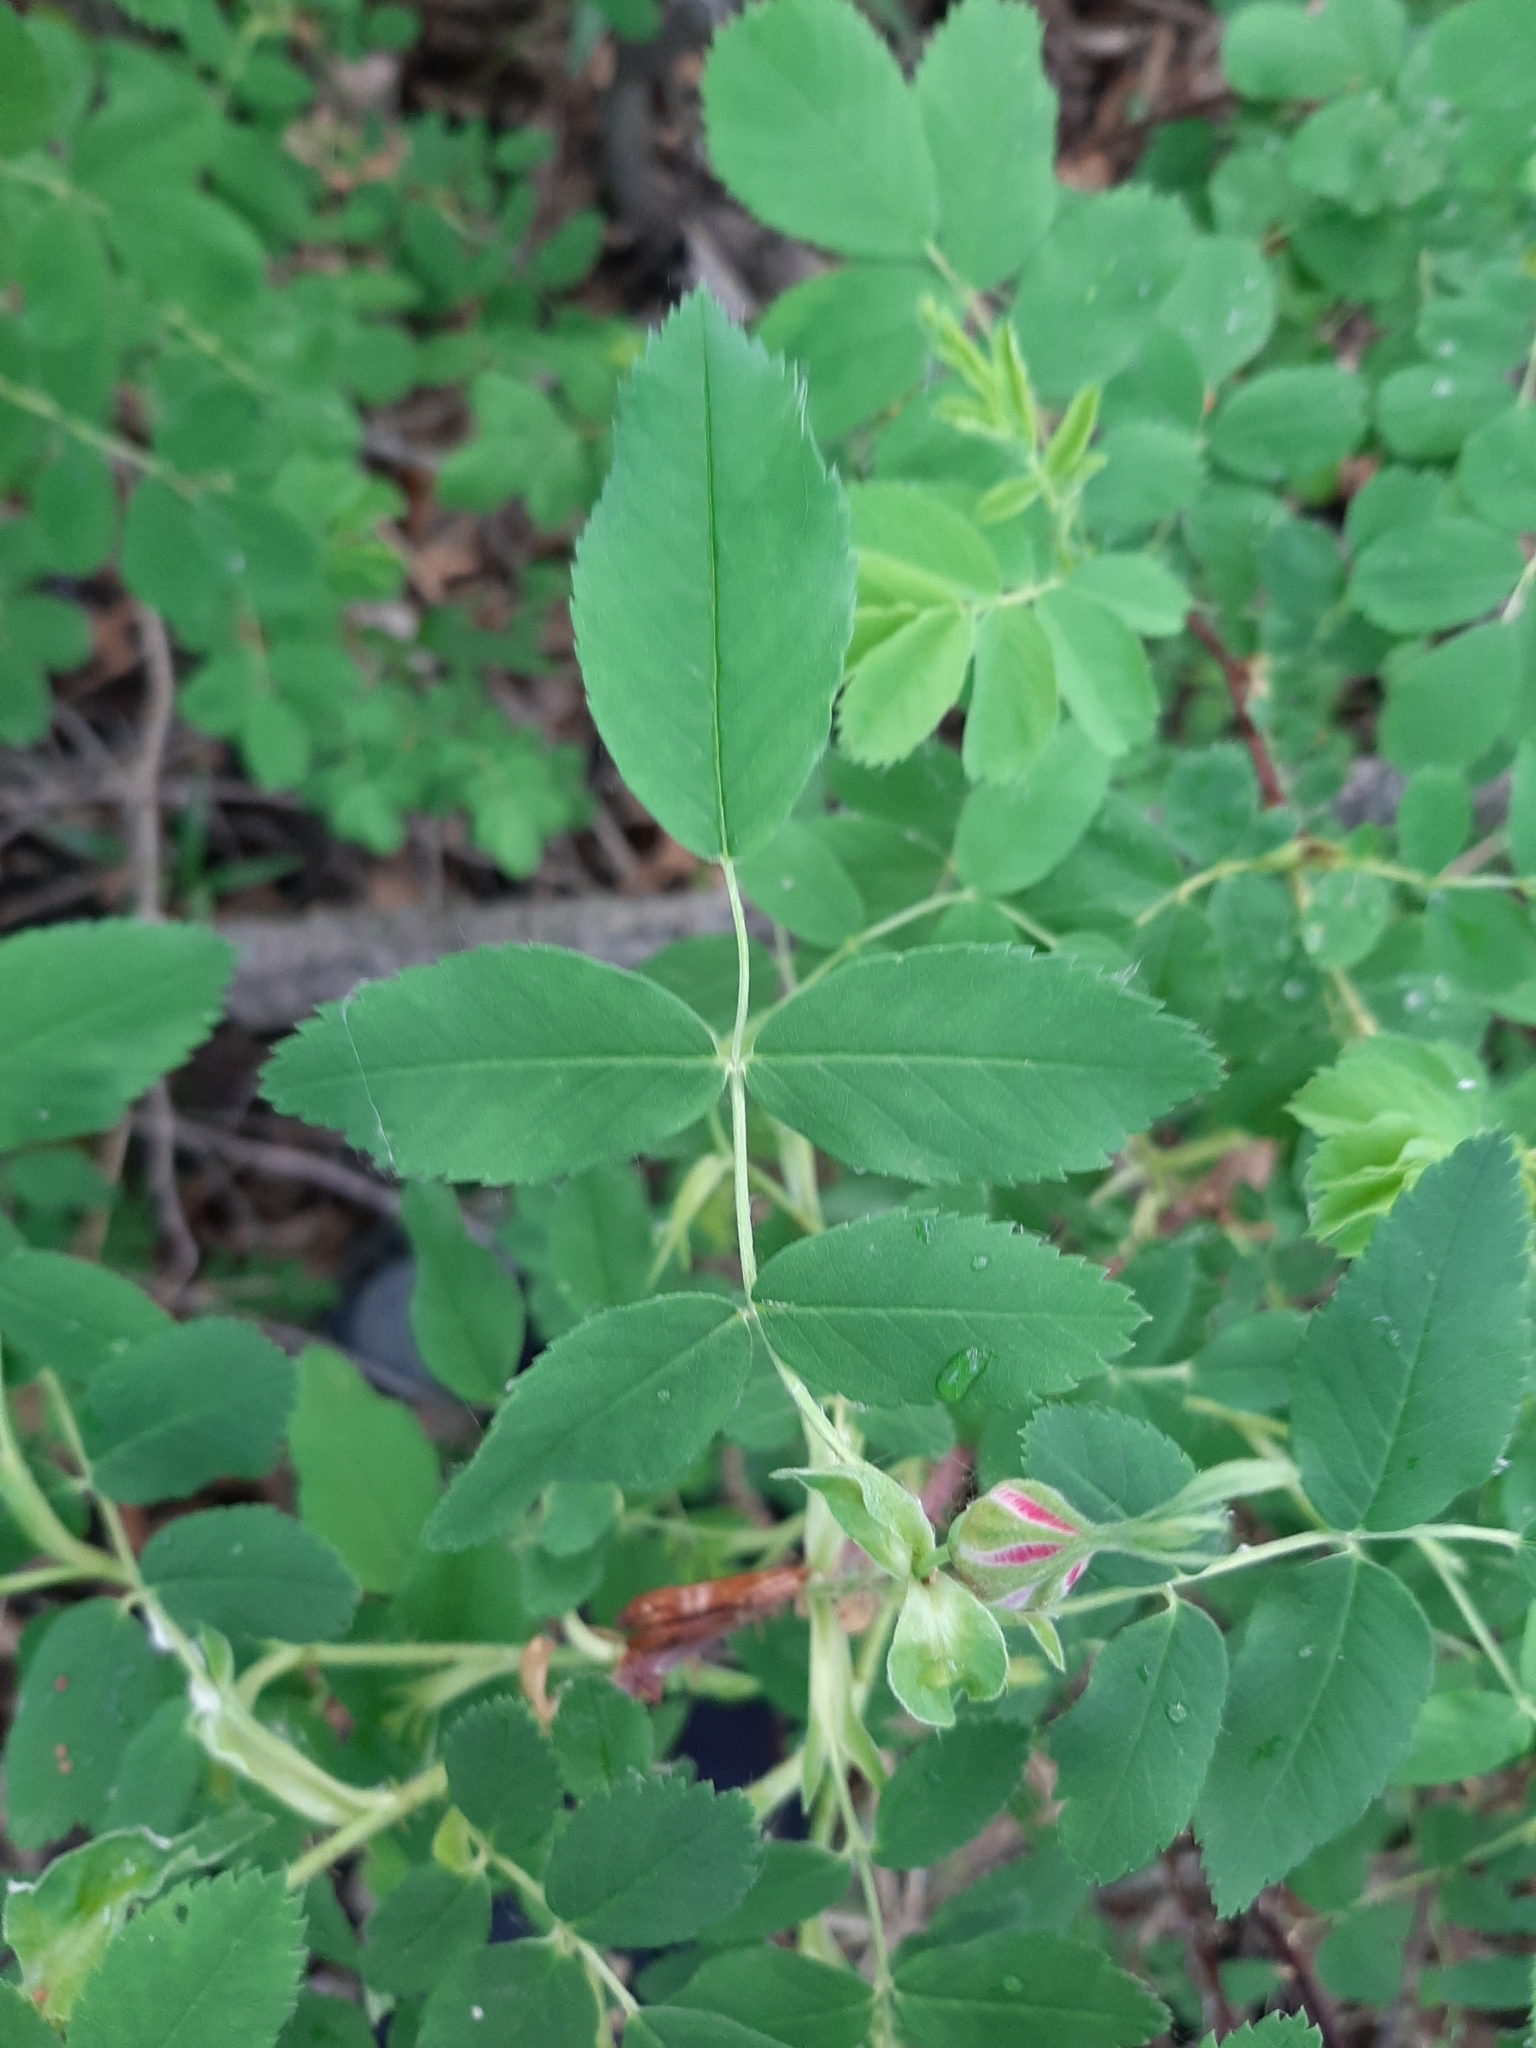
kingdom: Plantae
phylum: Tracheophyta
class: Magnoliopsida
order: Rosales
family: Rosaceae
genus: Rosa
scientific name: Rosa acicularis
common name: Prickly rose
